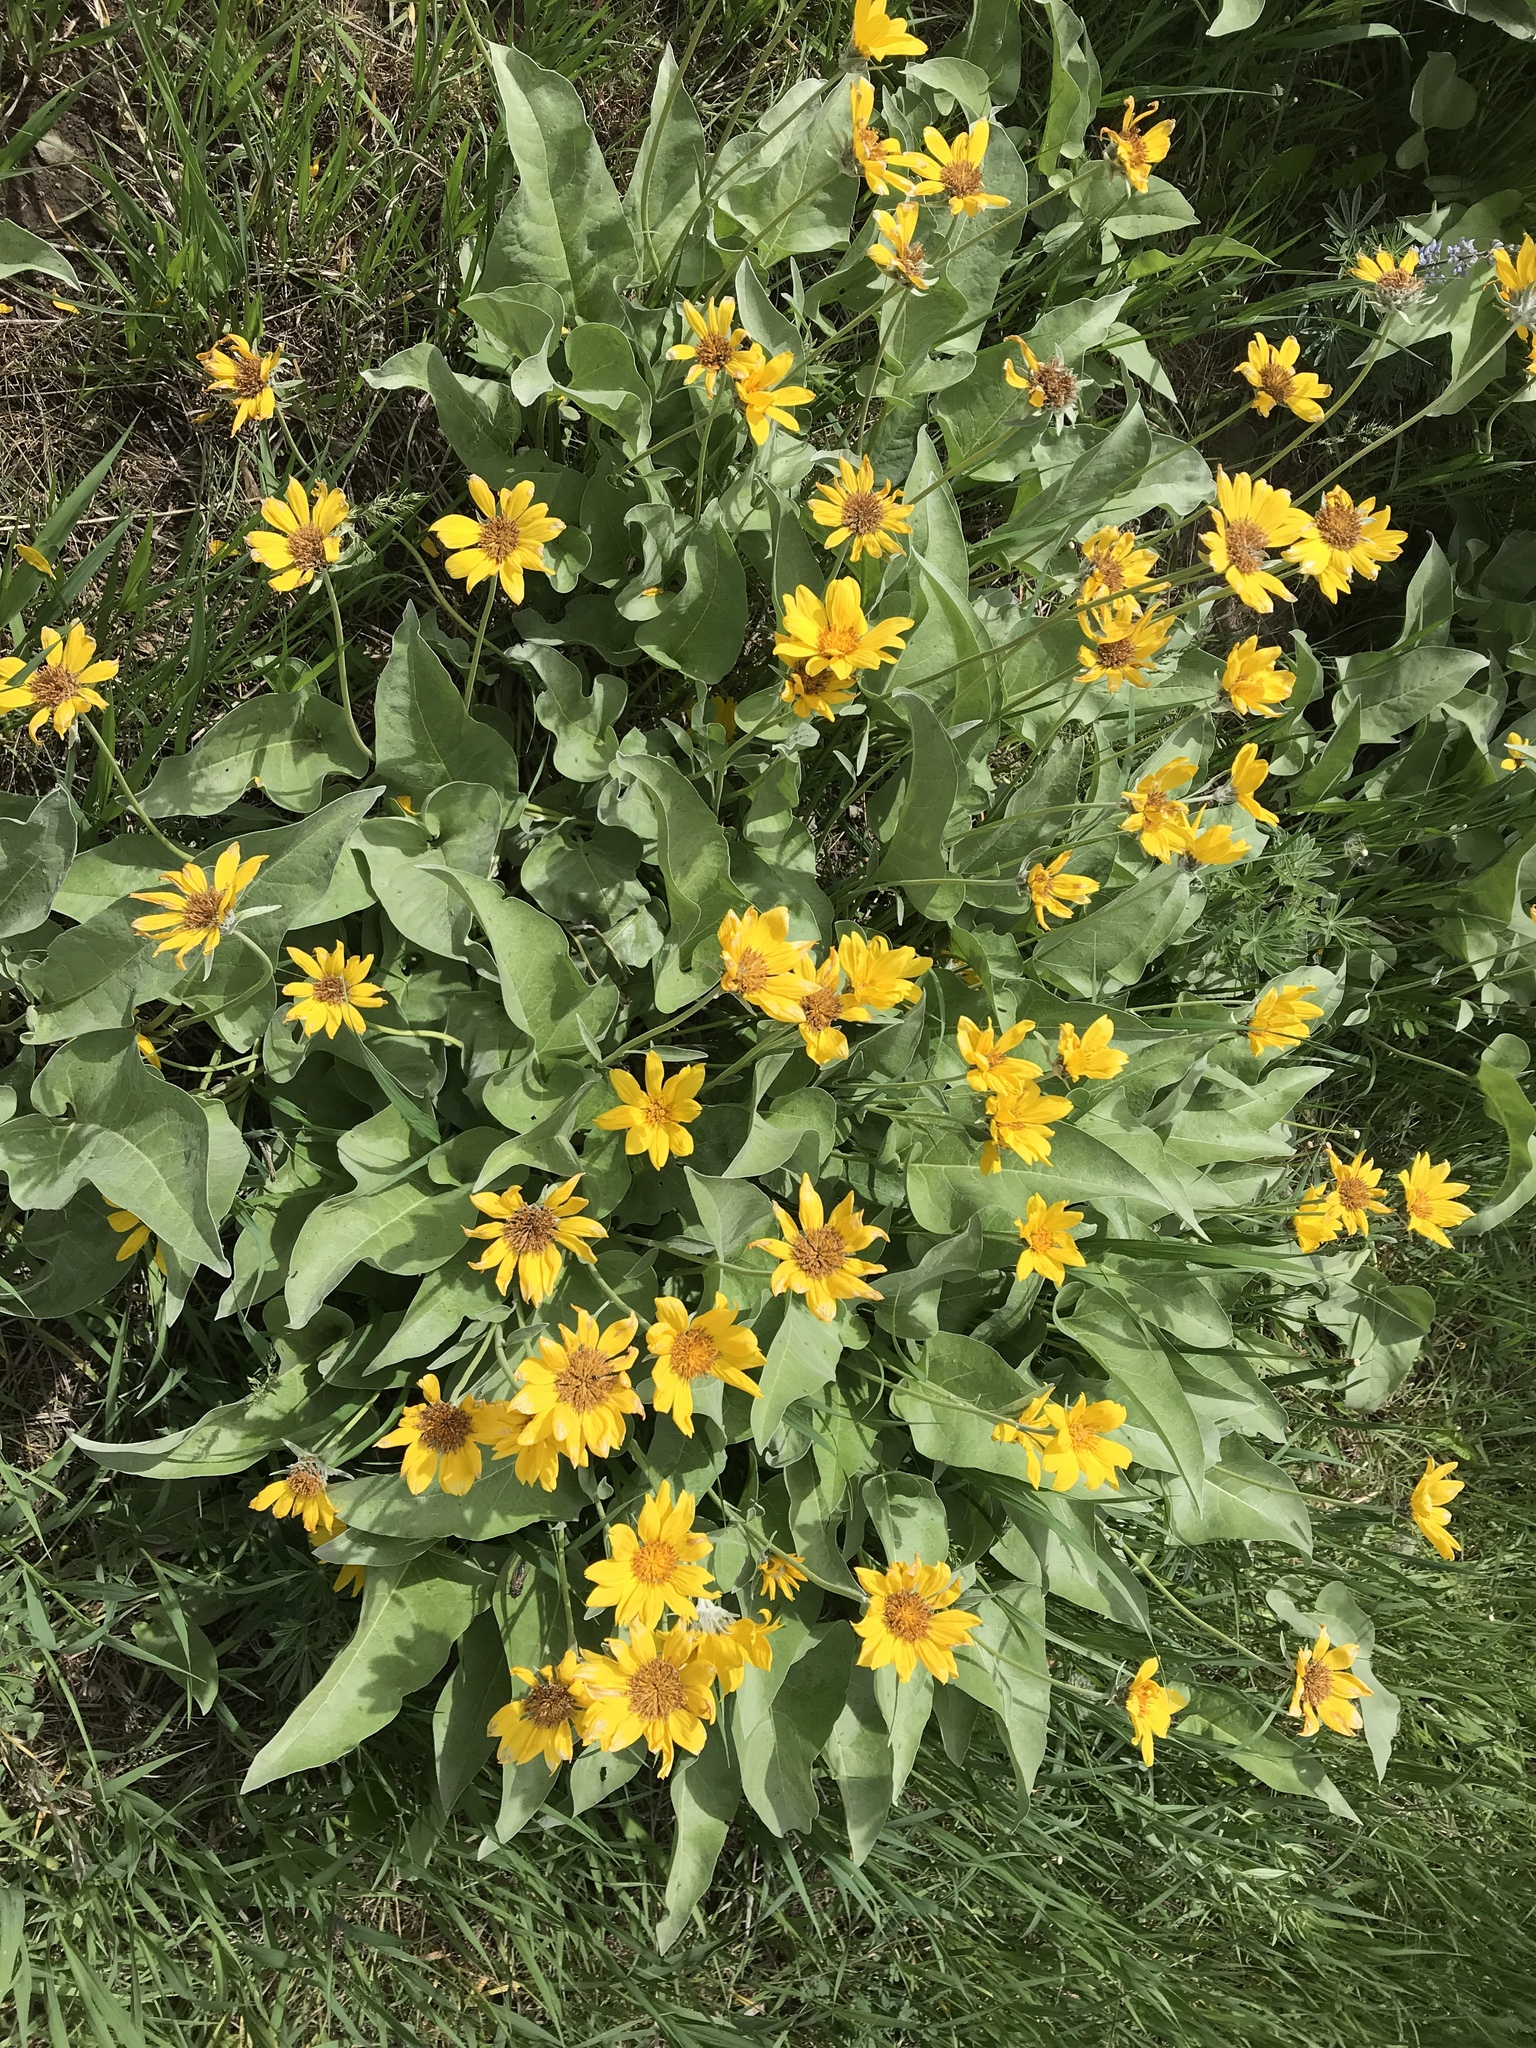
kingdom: Plantae
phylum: Tracheophyta
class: Magnoliopsida
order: Asterales
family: Asteraceae
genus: Wyethia
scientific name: Wyethia sagittata
